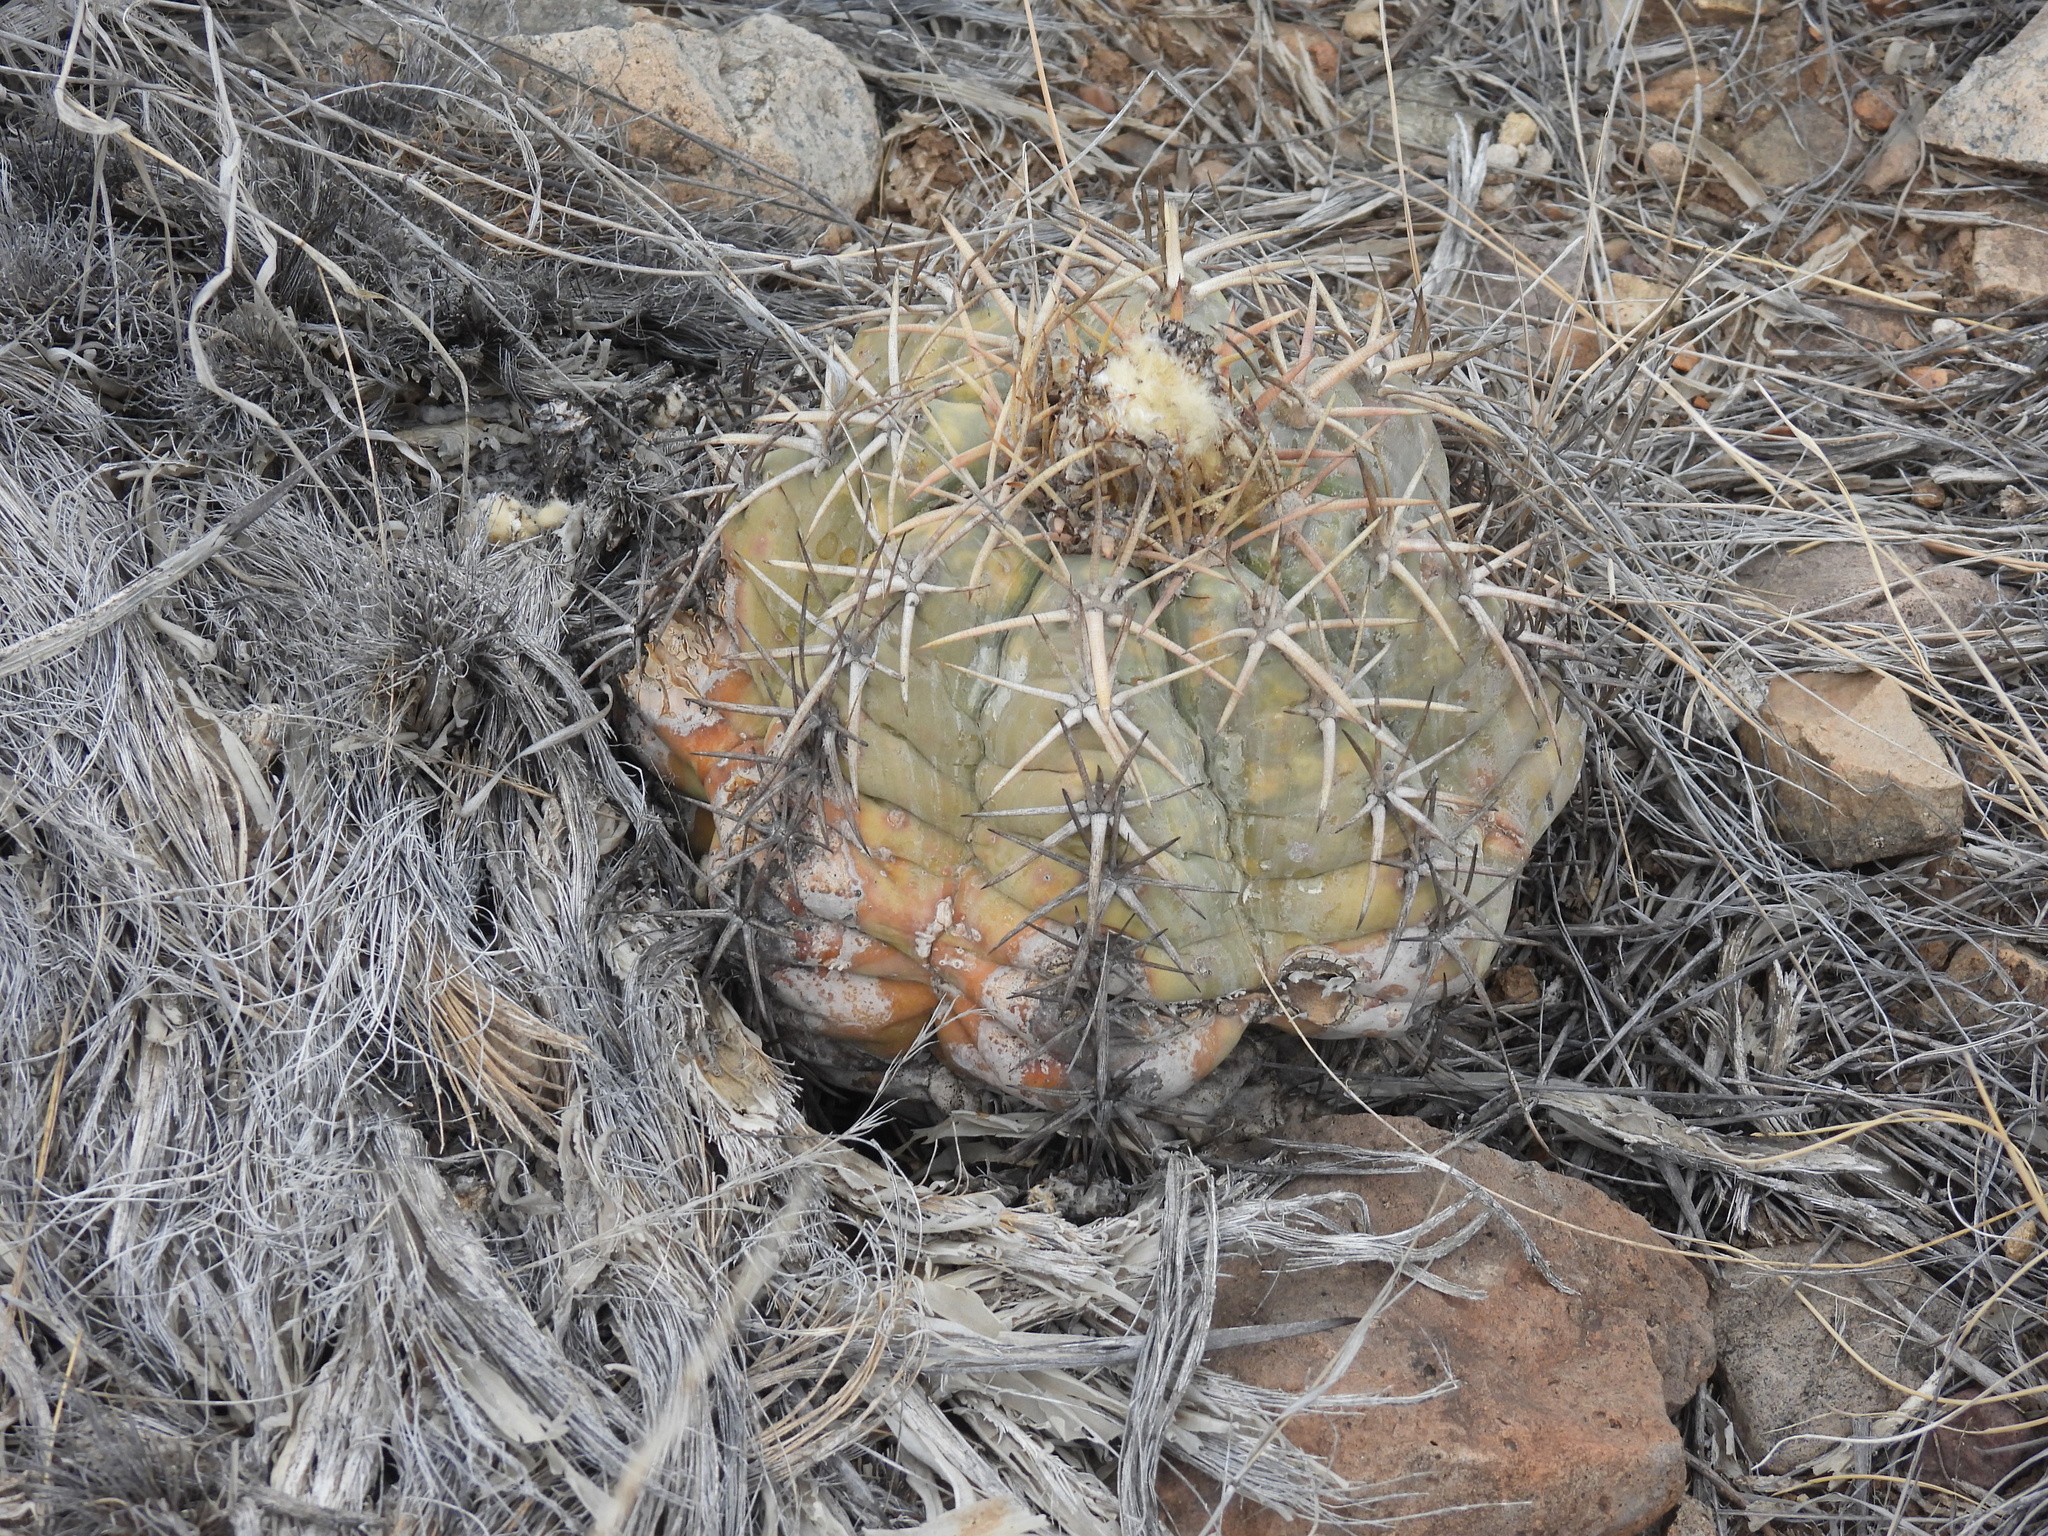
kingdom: Plantae
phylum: Tracheophyta
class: Magnoliopsida
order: Caryophyllales
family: Cactaceae
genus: Echinocactus
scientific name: Echinocactus horizonthalonius
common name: Devilshead
